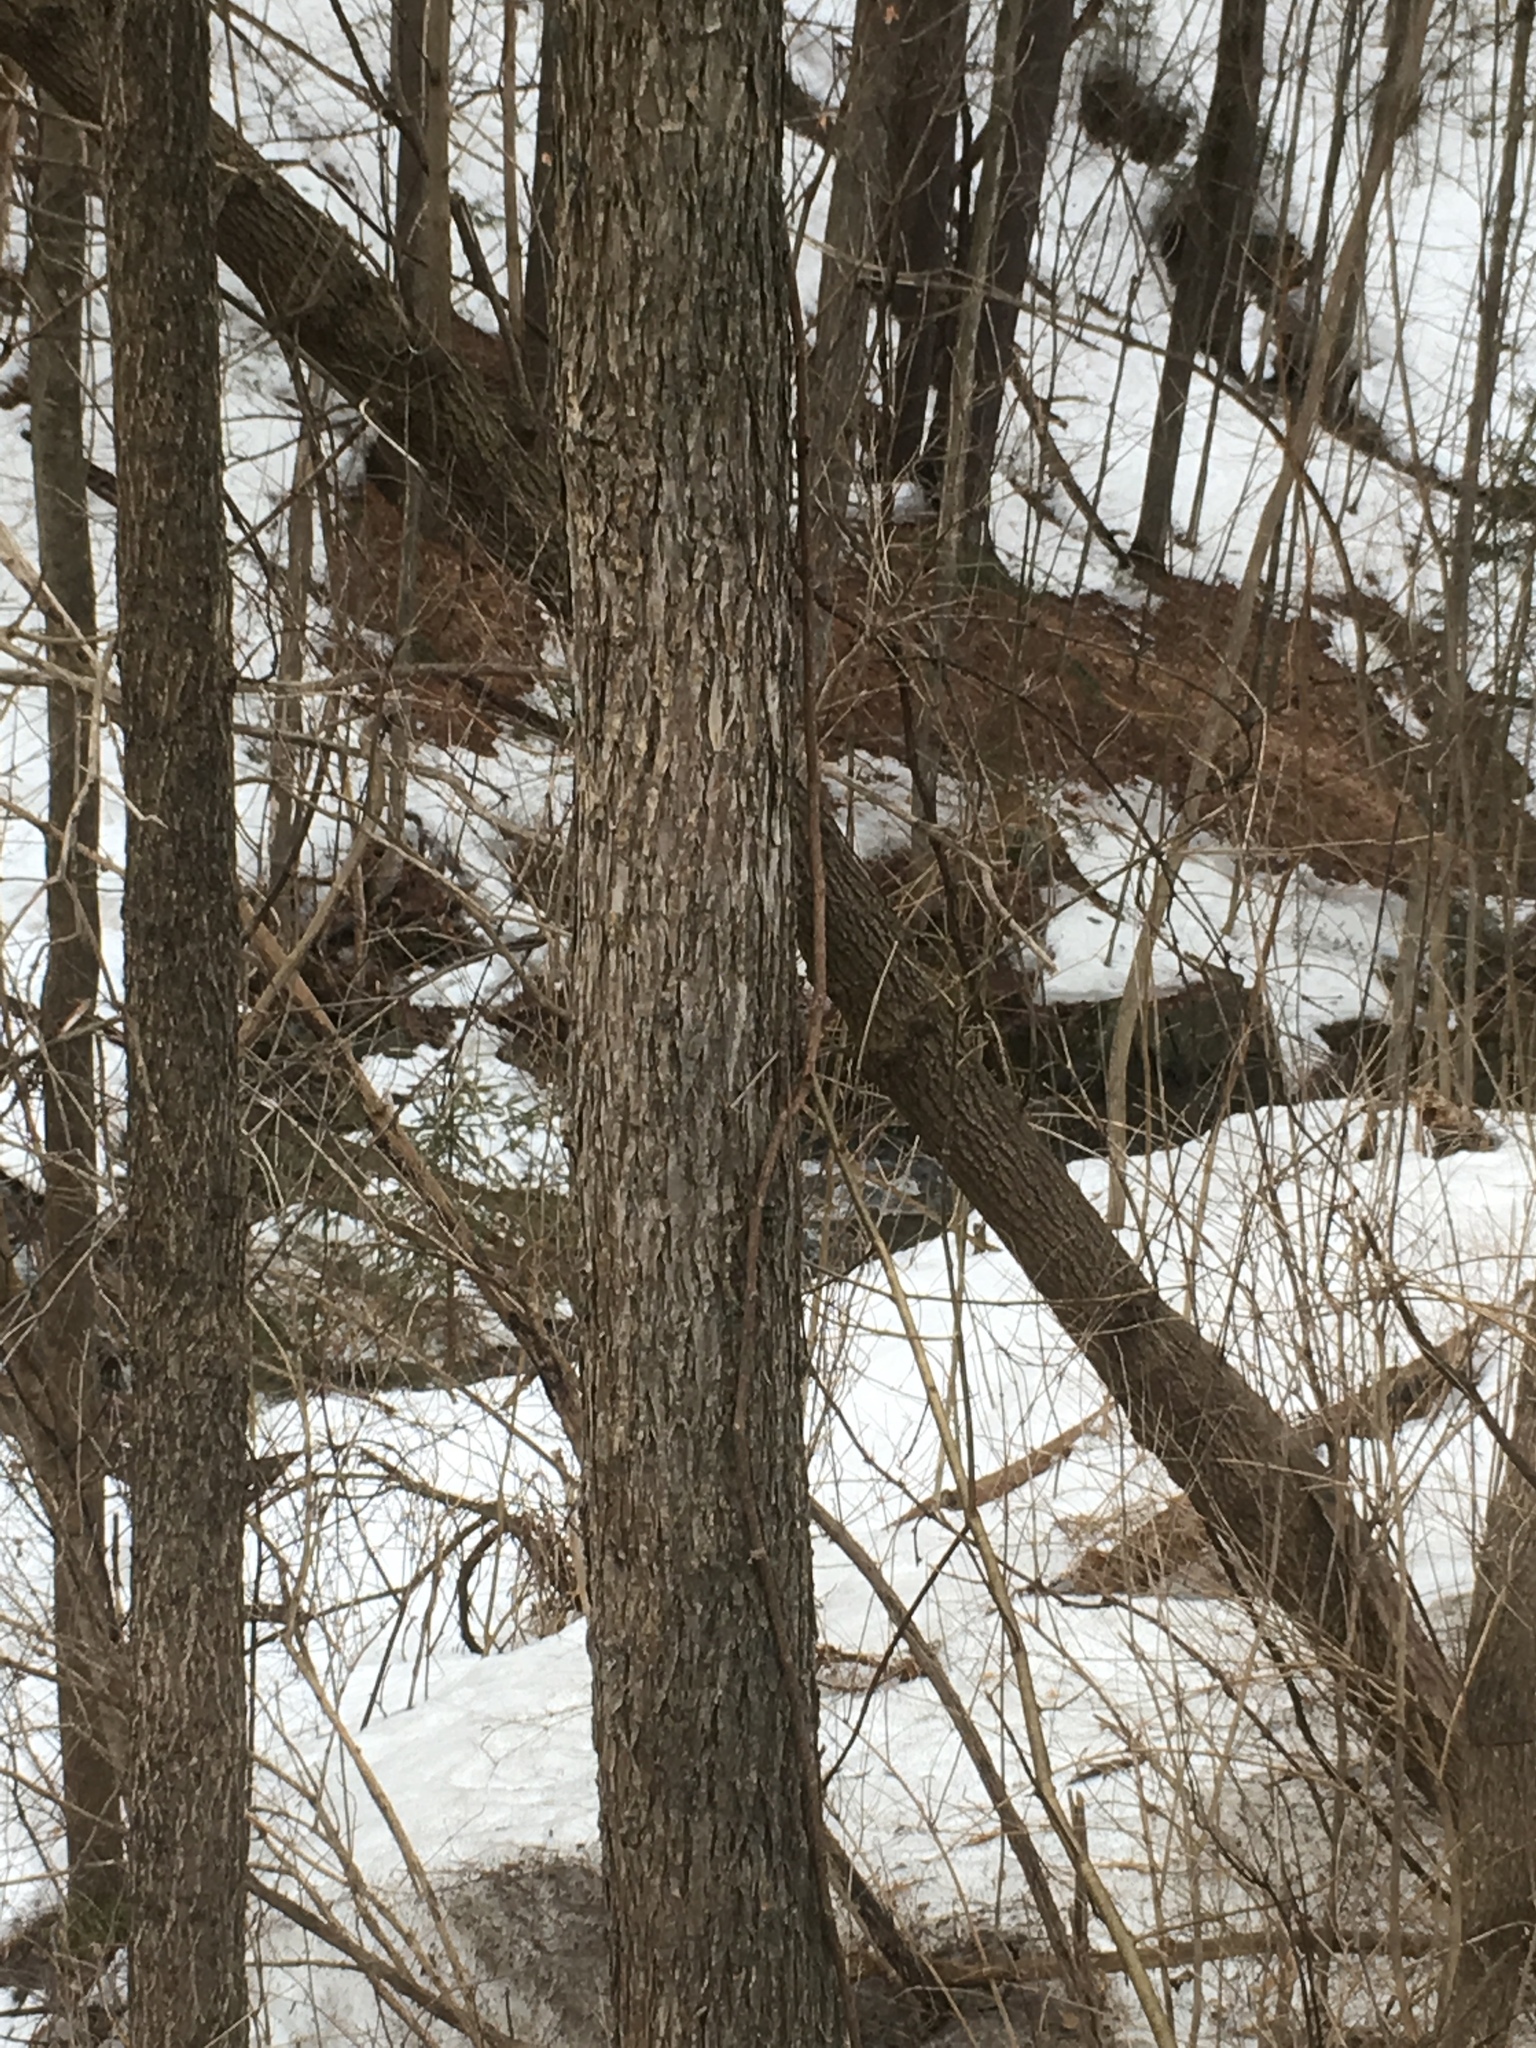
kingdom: Plantae
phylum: Tracheophyta
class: Magnoliopsida
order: Rosales
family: Ulmaceae
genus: Ulmus
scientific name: Ulmus americana
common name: American elm
